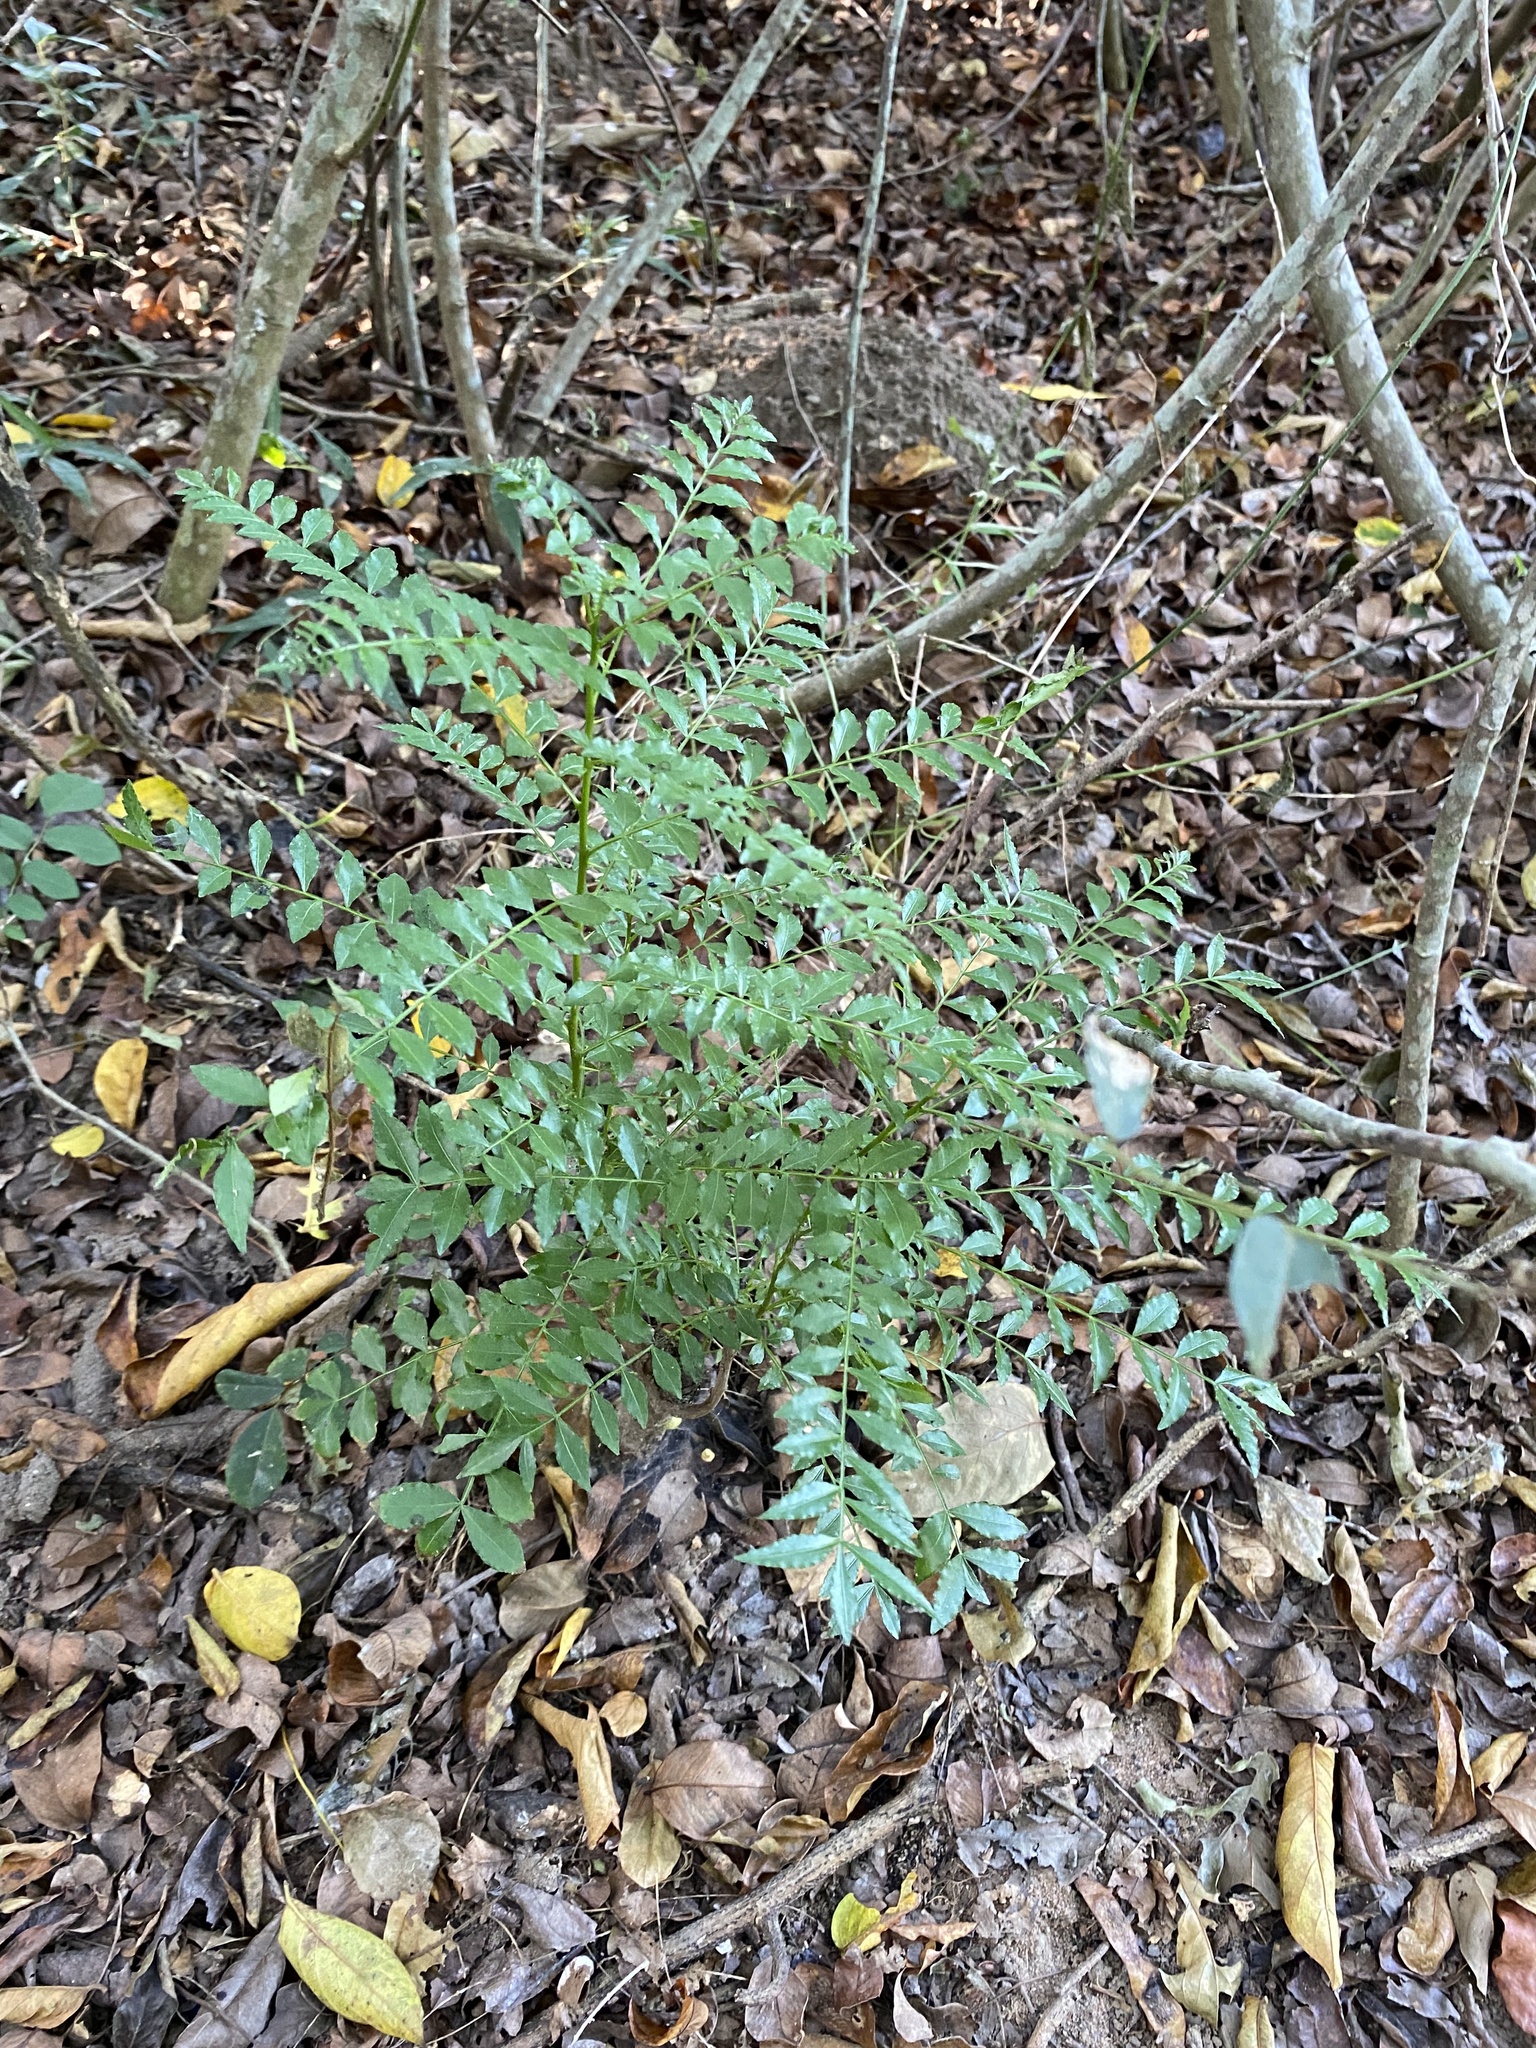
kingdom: Plantae
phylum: Tracheophyta
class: Magnoliopsida
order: Sapindales
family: Rutaceae
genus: Zanthoxylum
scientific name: Zanthoxylum capense
